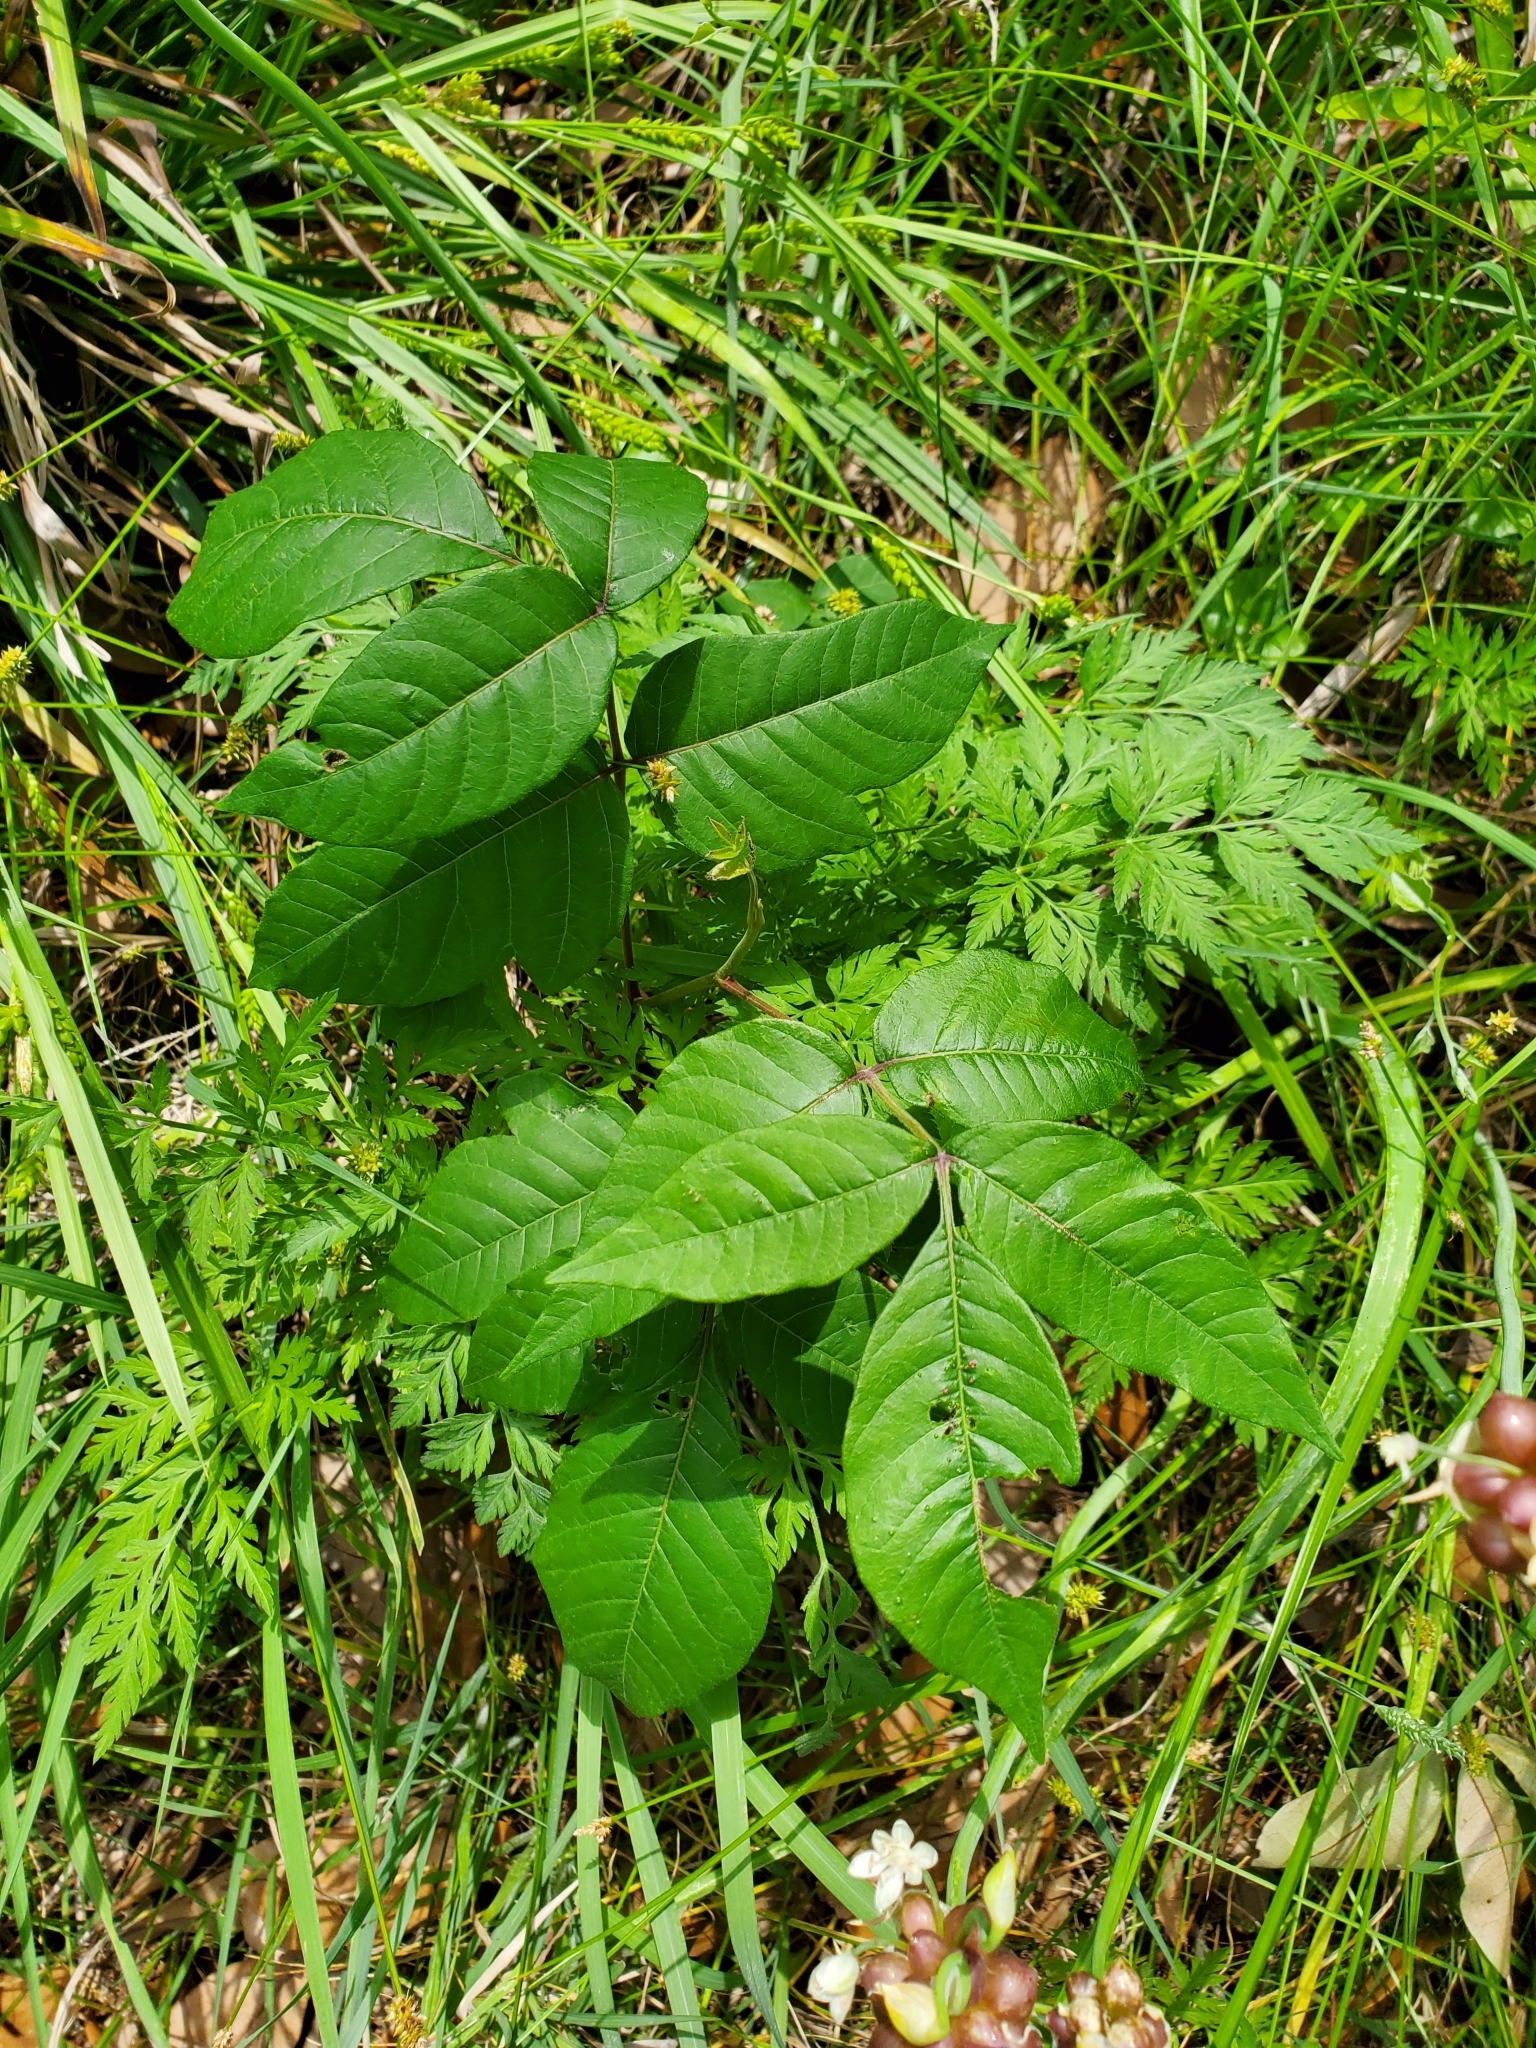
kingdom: Plantae
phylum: Tracheophyta
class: Magnoliopsida
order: Sapindales
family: Anacardiaceae
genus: Toxicodendron
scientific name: Toxicodendron radicans
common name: Poison ivy
